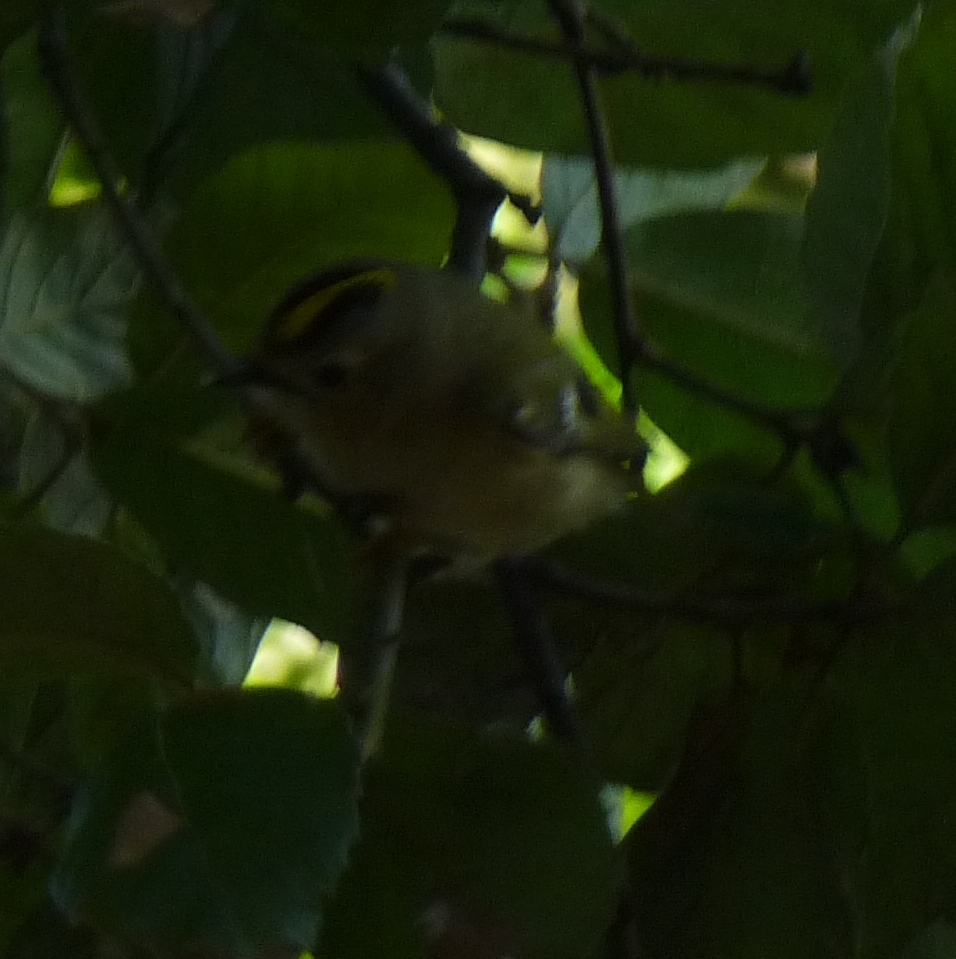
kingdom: Animalia
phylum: Chordata
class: Aves
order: Passeriformes
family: Regulidae
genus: Regulus
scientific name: Regulus regulus
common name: Goldcrest
